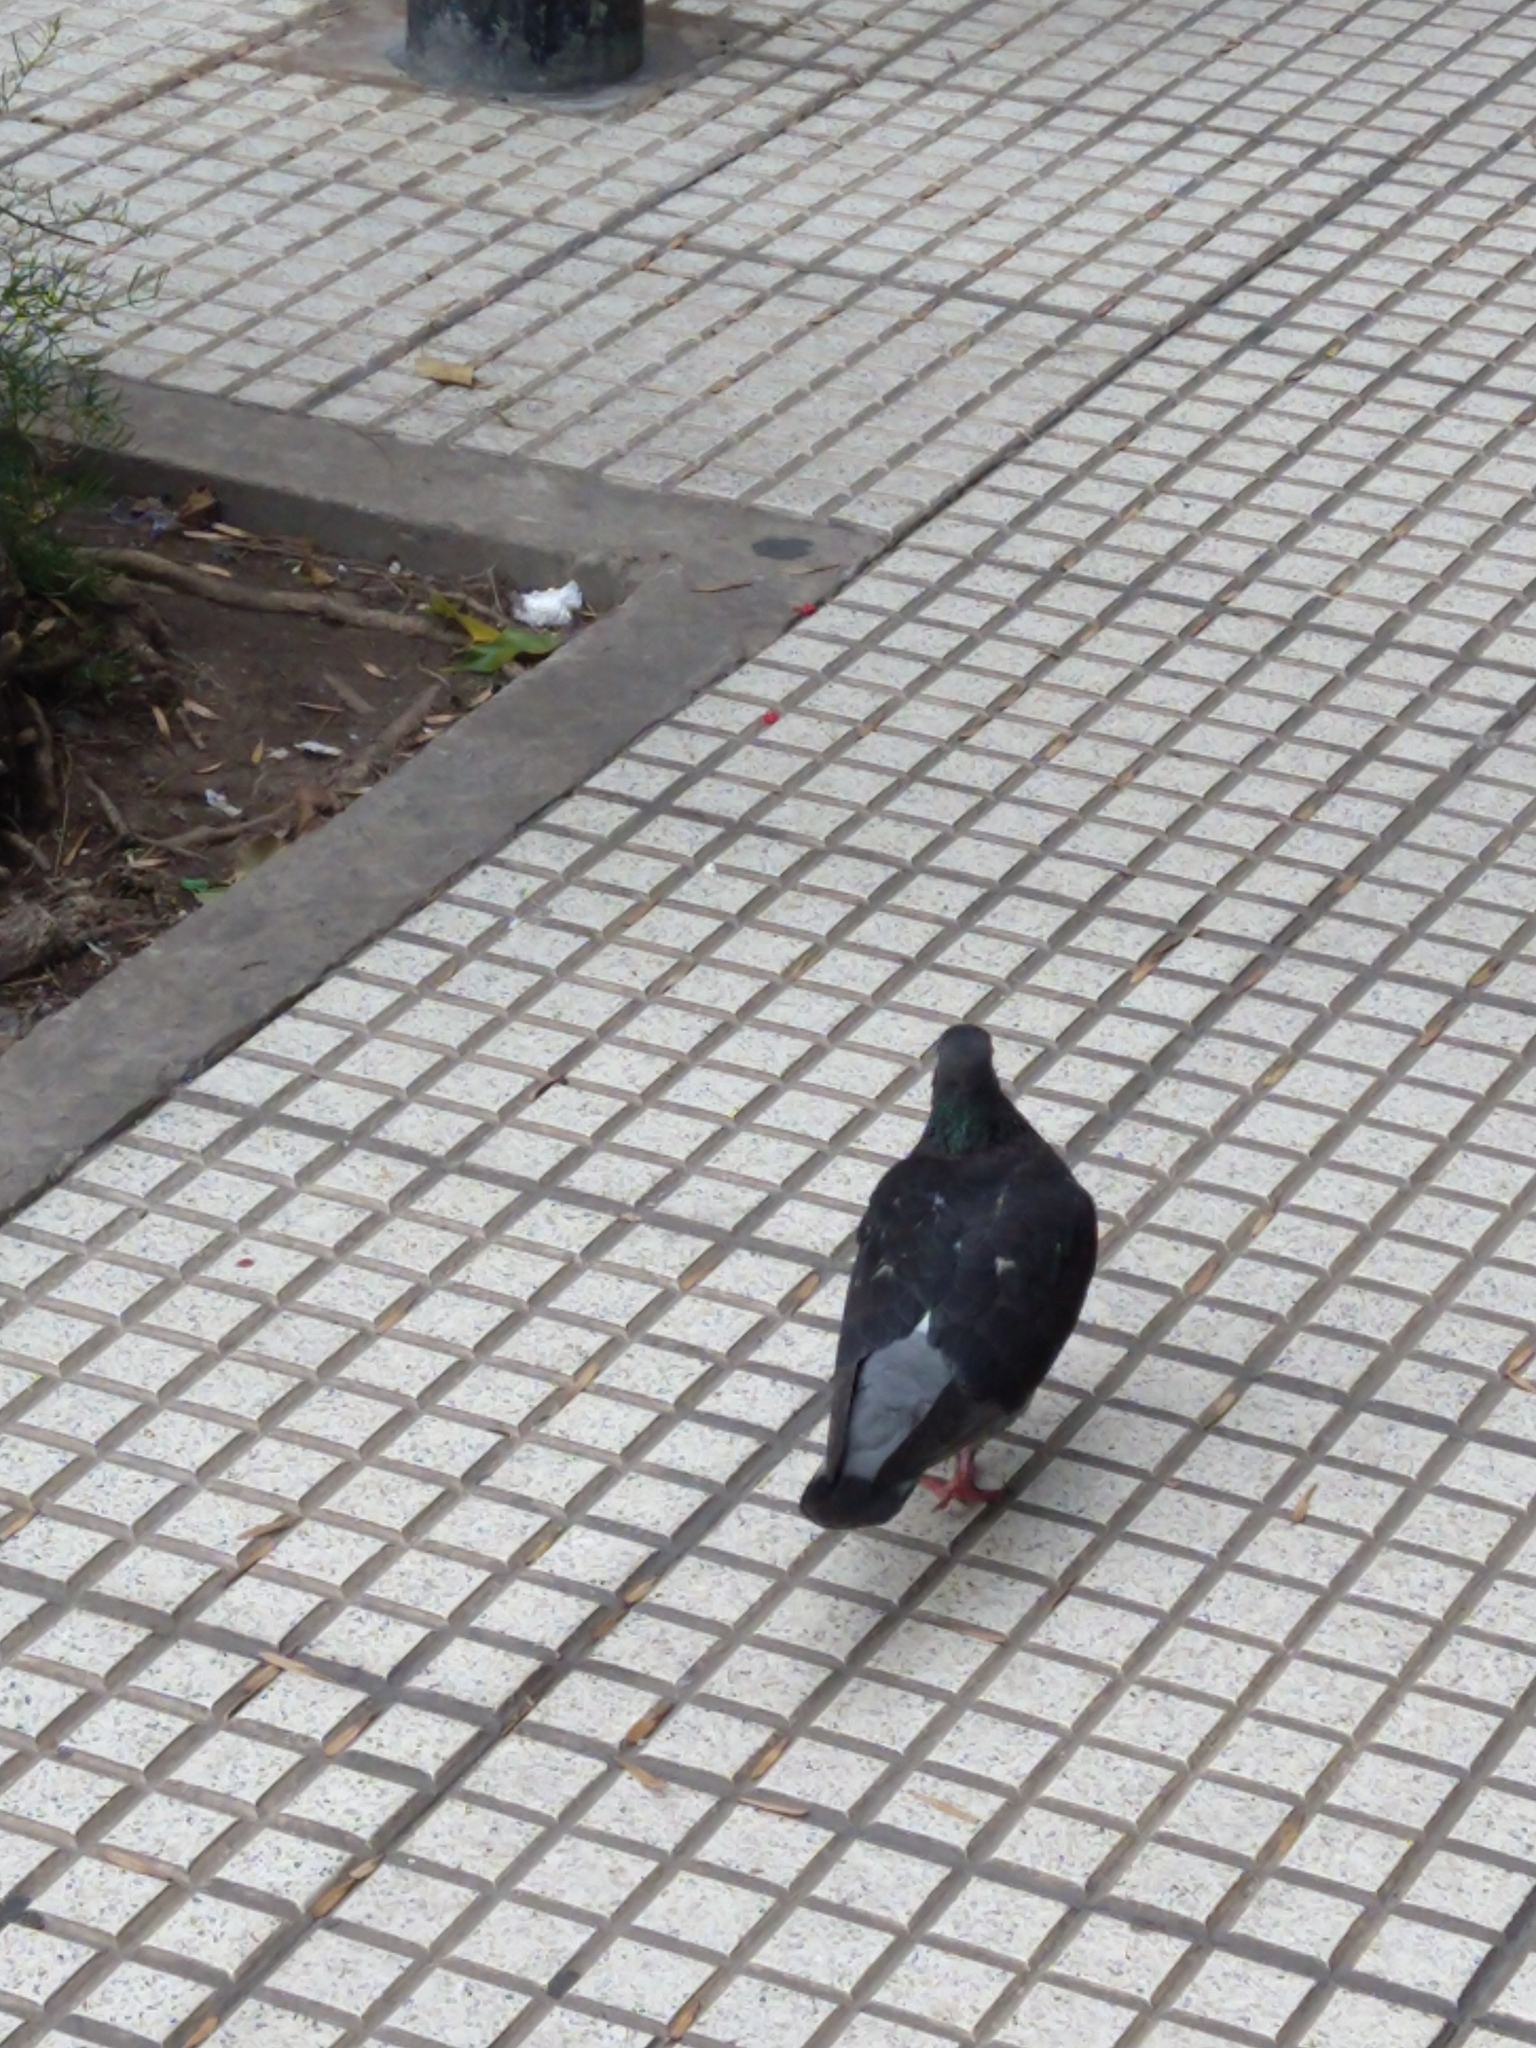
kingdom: Animalia
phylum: Chordata
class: Aves
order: Columbiformes
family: Columbidae
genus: Columba
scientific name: Columba livia
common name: Rock pigeon
